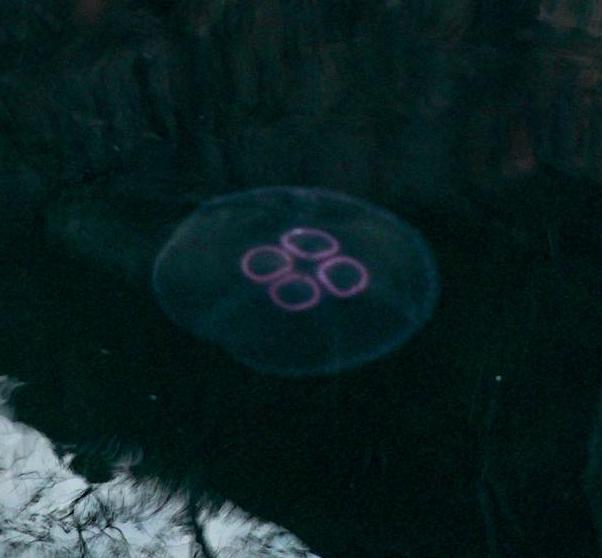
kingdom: Animalia
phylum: Cnidaria
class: Scyphozoa
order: Semaeostomeae
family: Ulmaridae
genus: Aurelia
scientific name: Aurelia aurita
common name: Moon jellyfish
